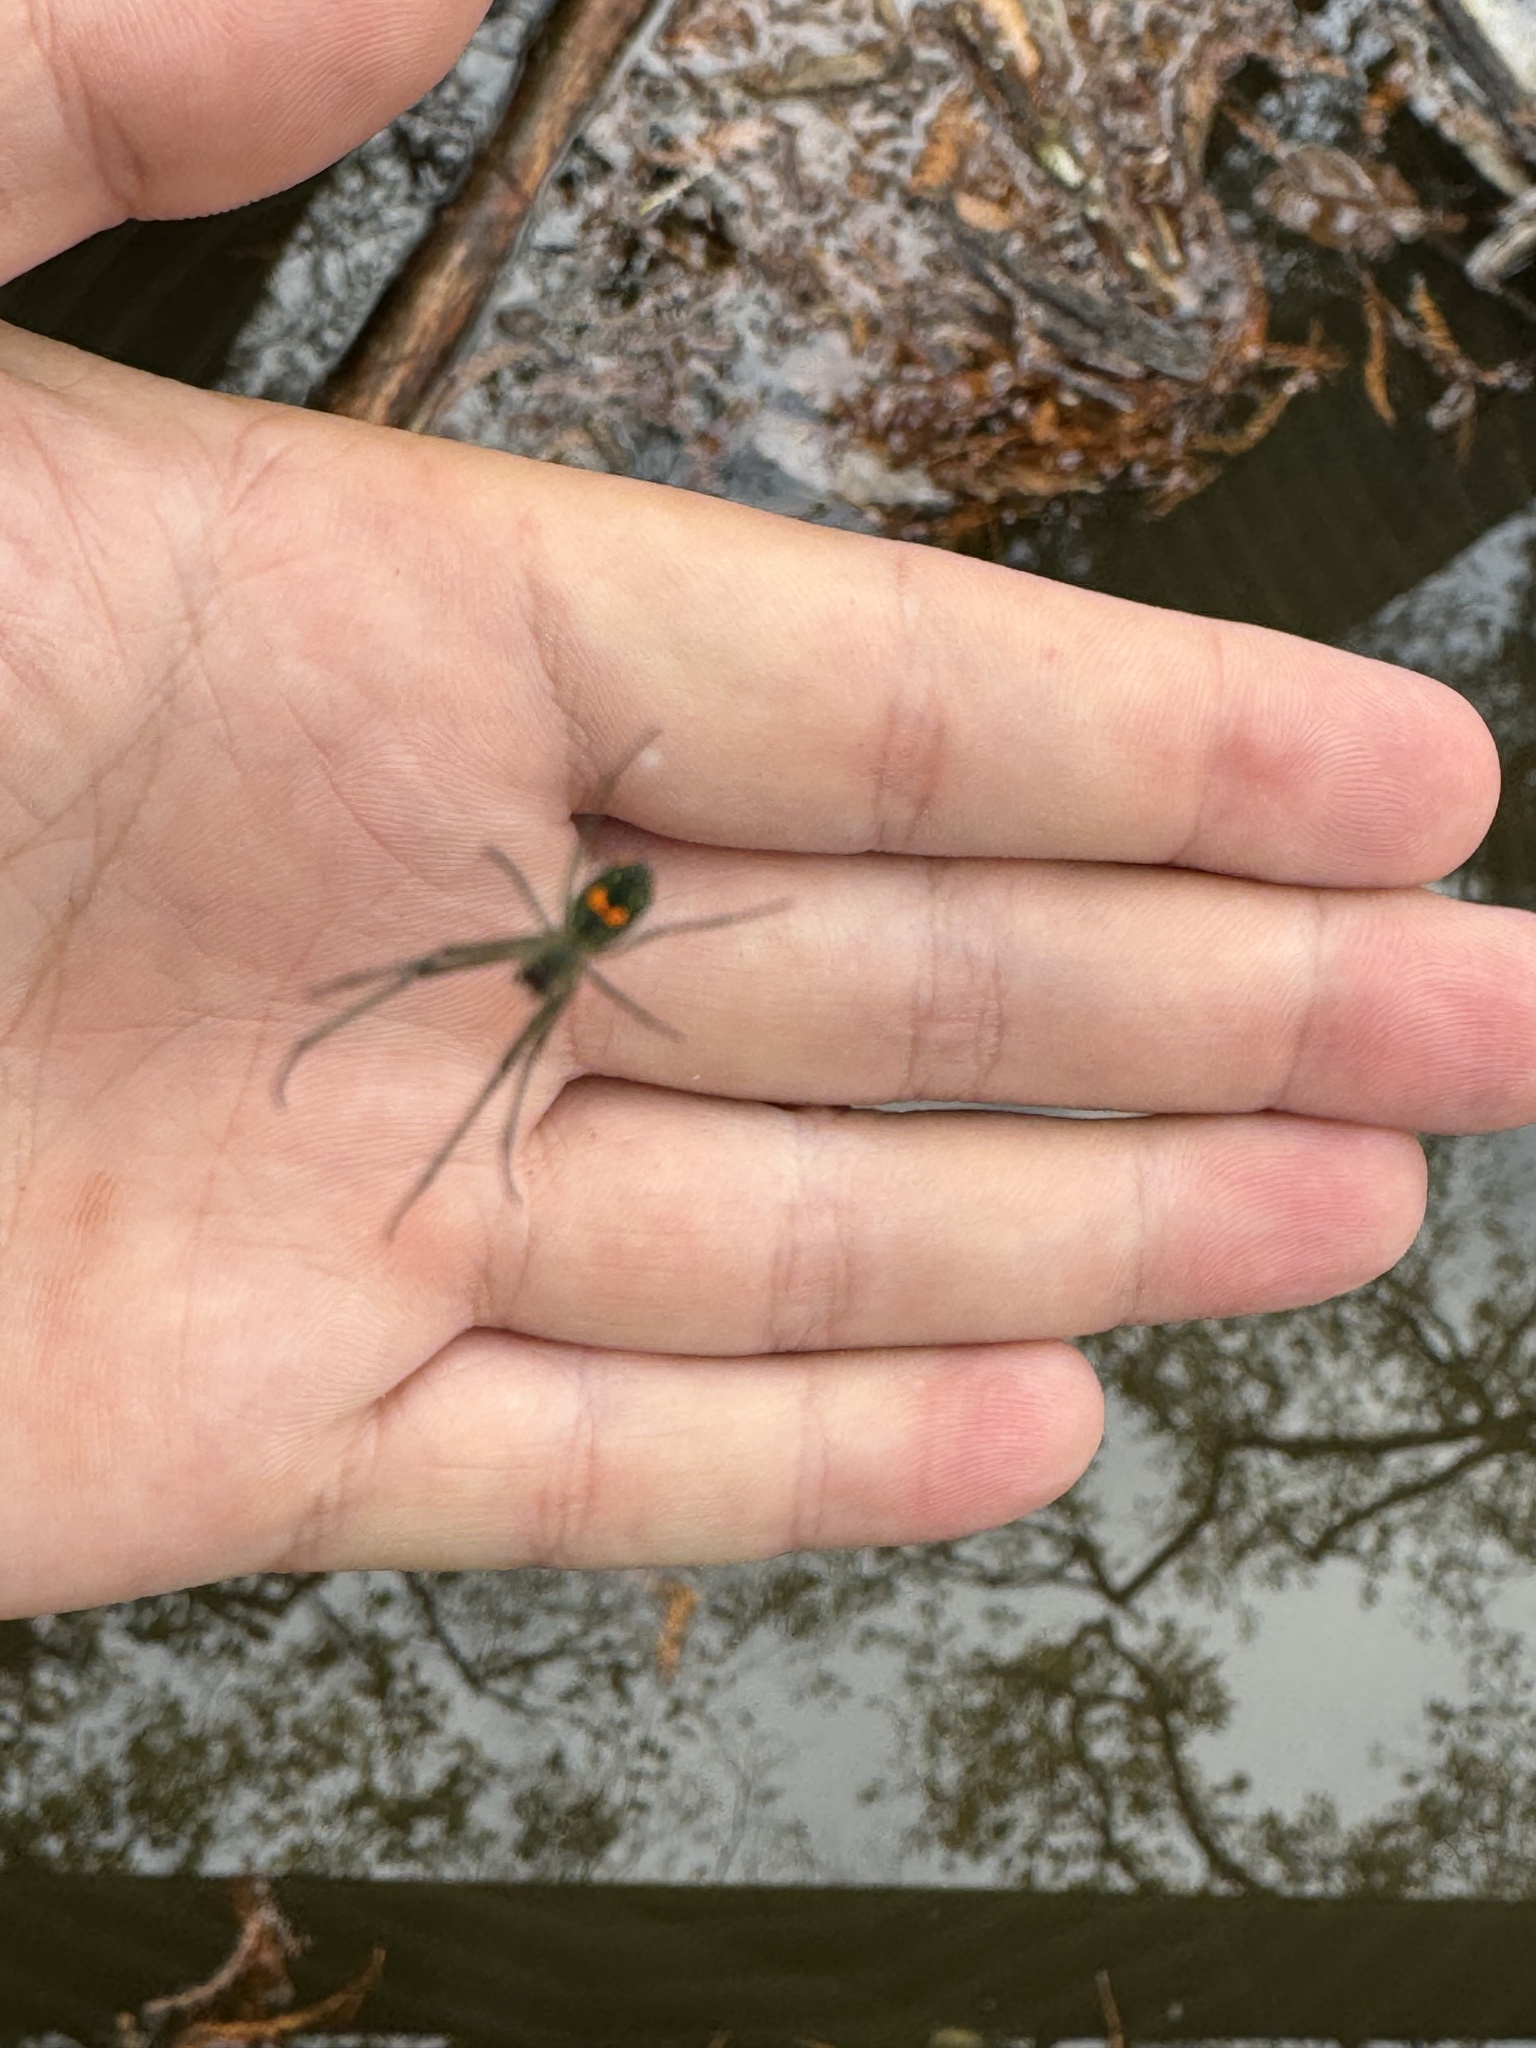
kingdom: Animalia
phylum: Arthropoda
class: Arachnida
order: Araneae
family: Tetragnathidae
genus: Leucauge
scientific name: Leucauge argyrobapta
